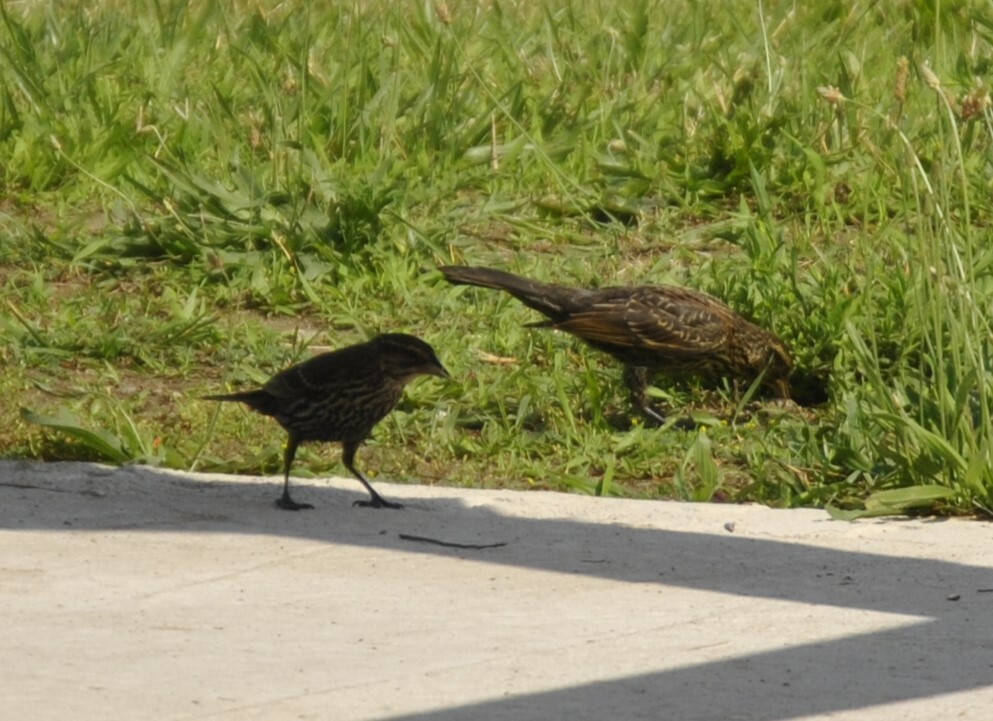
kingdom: Animalia
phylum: Chordata
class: Aves
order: Passeriformes
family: Icteridae
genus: Agelaius
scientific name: Agelaius phoeniceus
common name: Red-winged blackbird
